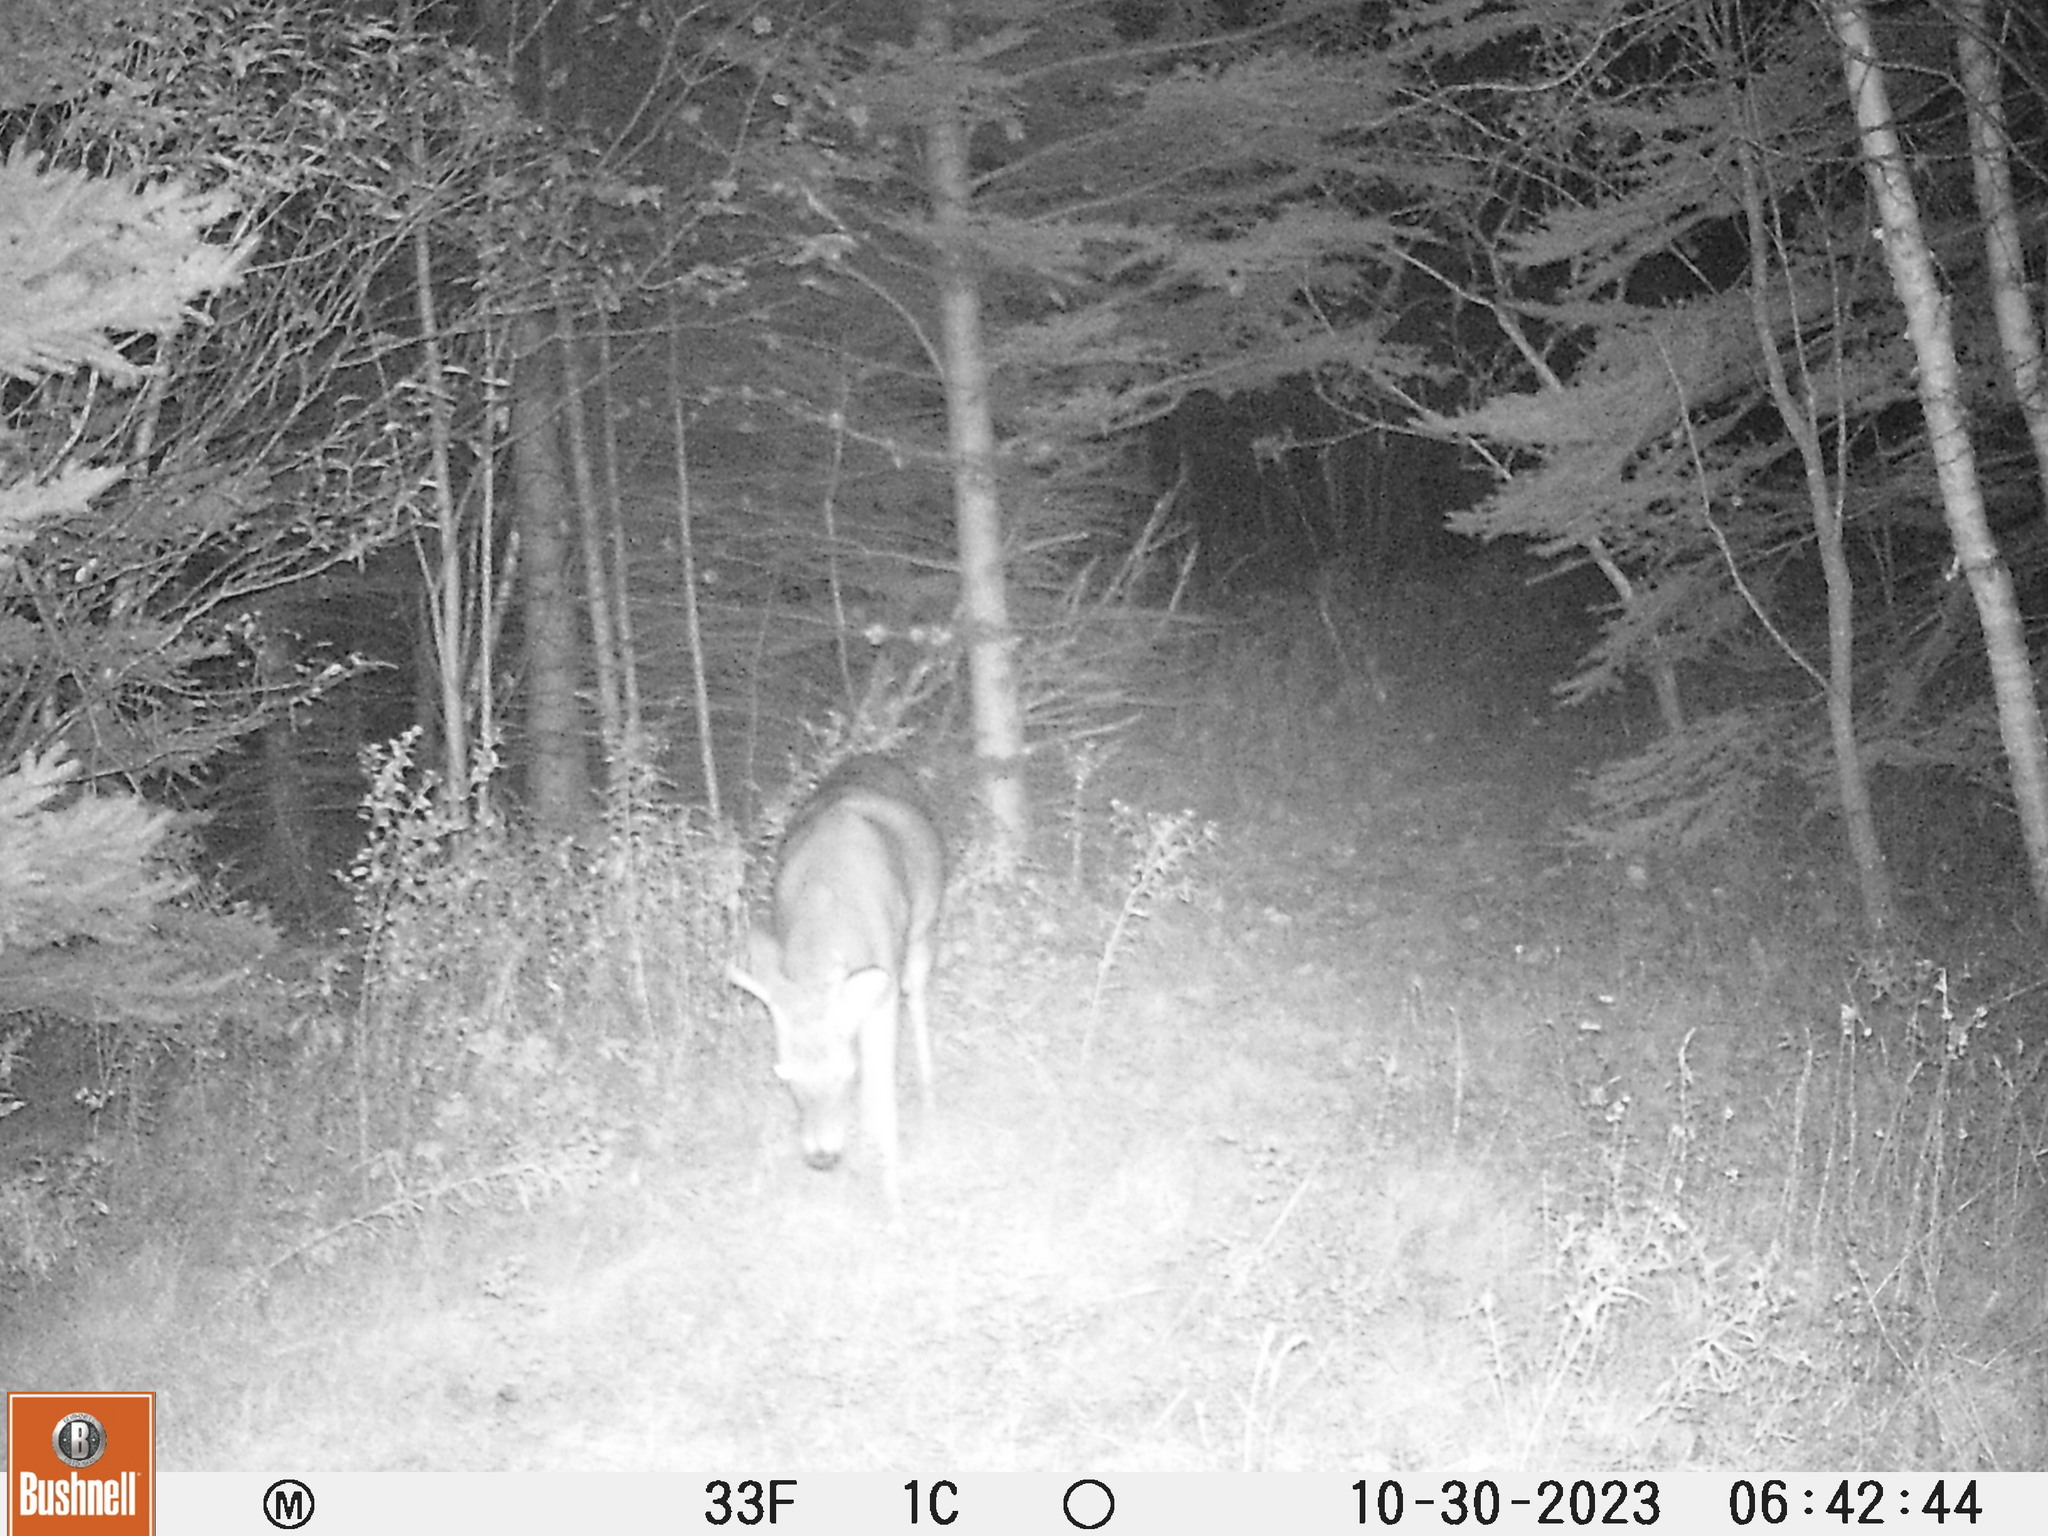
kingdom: Animalia
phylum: Chordata
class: Mammalia
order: Artiodactyla
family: Cervidae
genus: Odocoileus
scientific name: Odocoileus virginianus
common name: White-tailed deer
